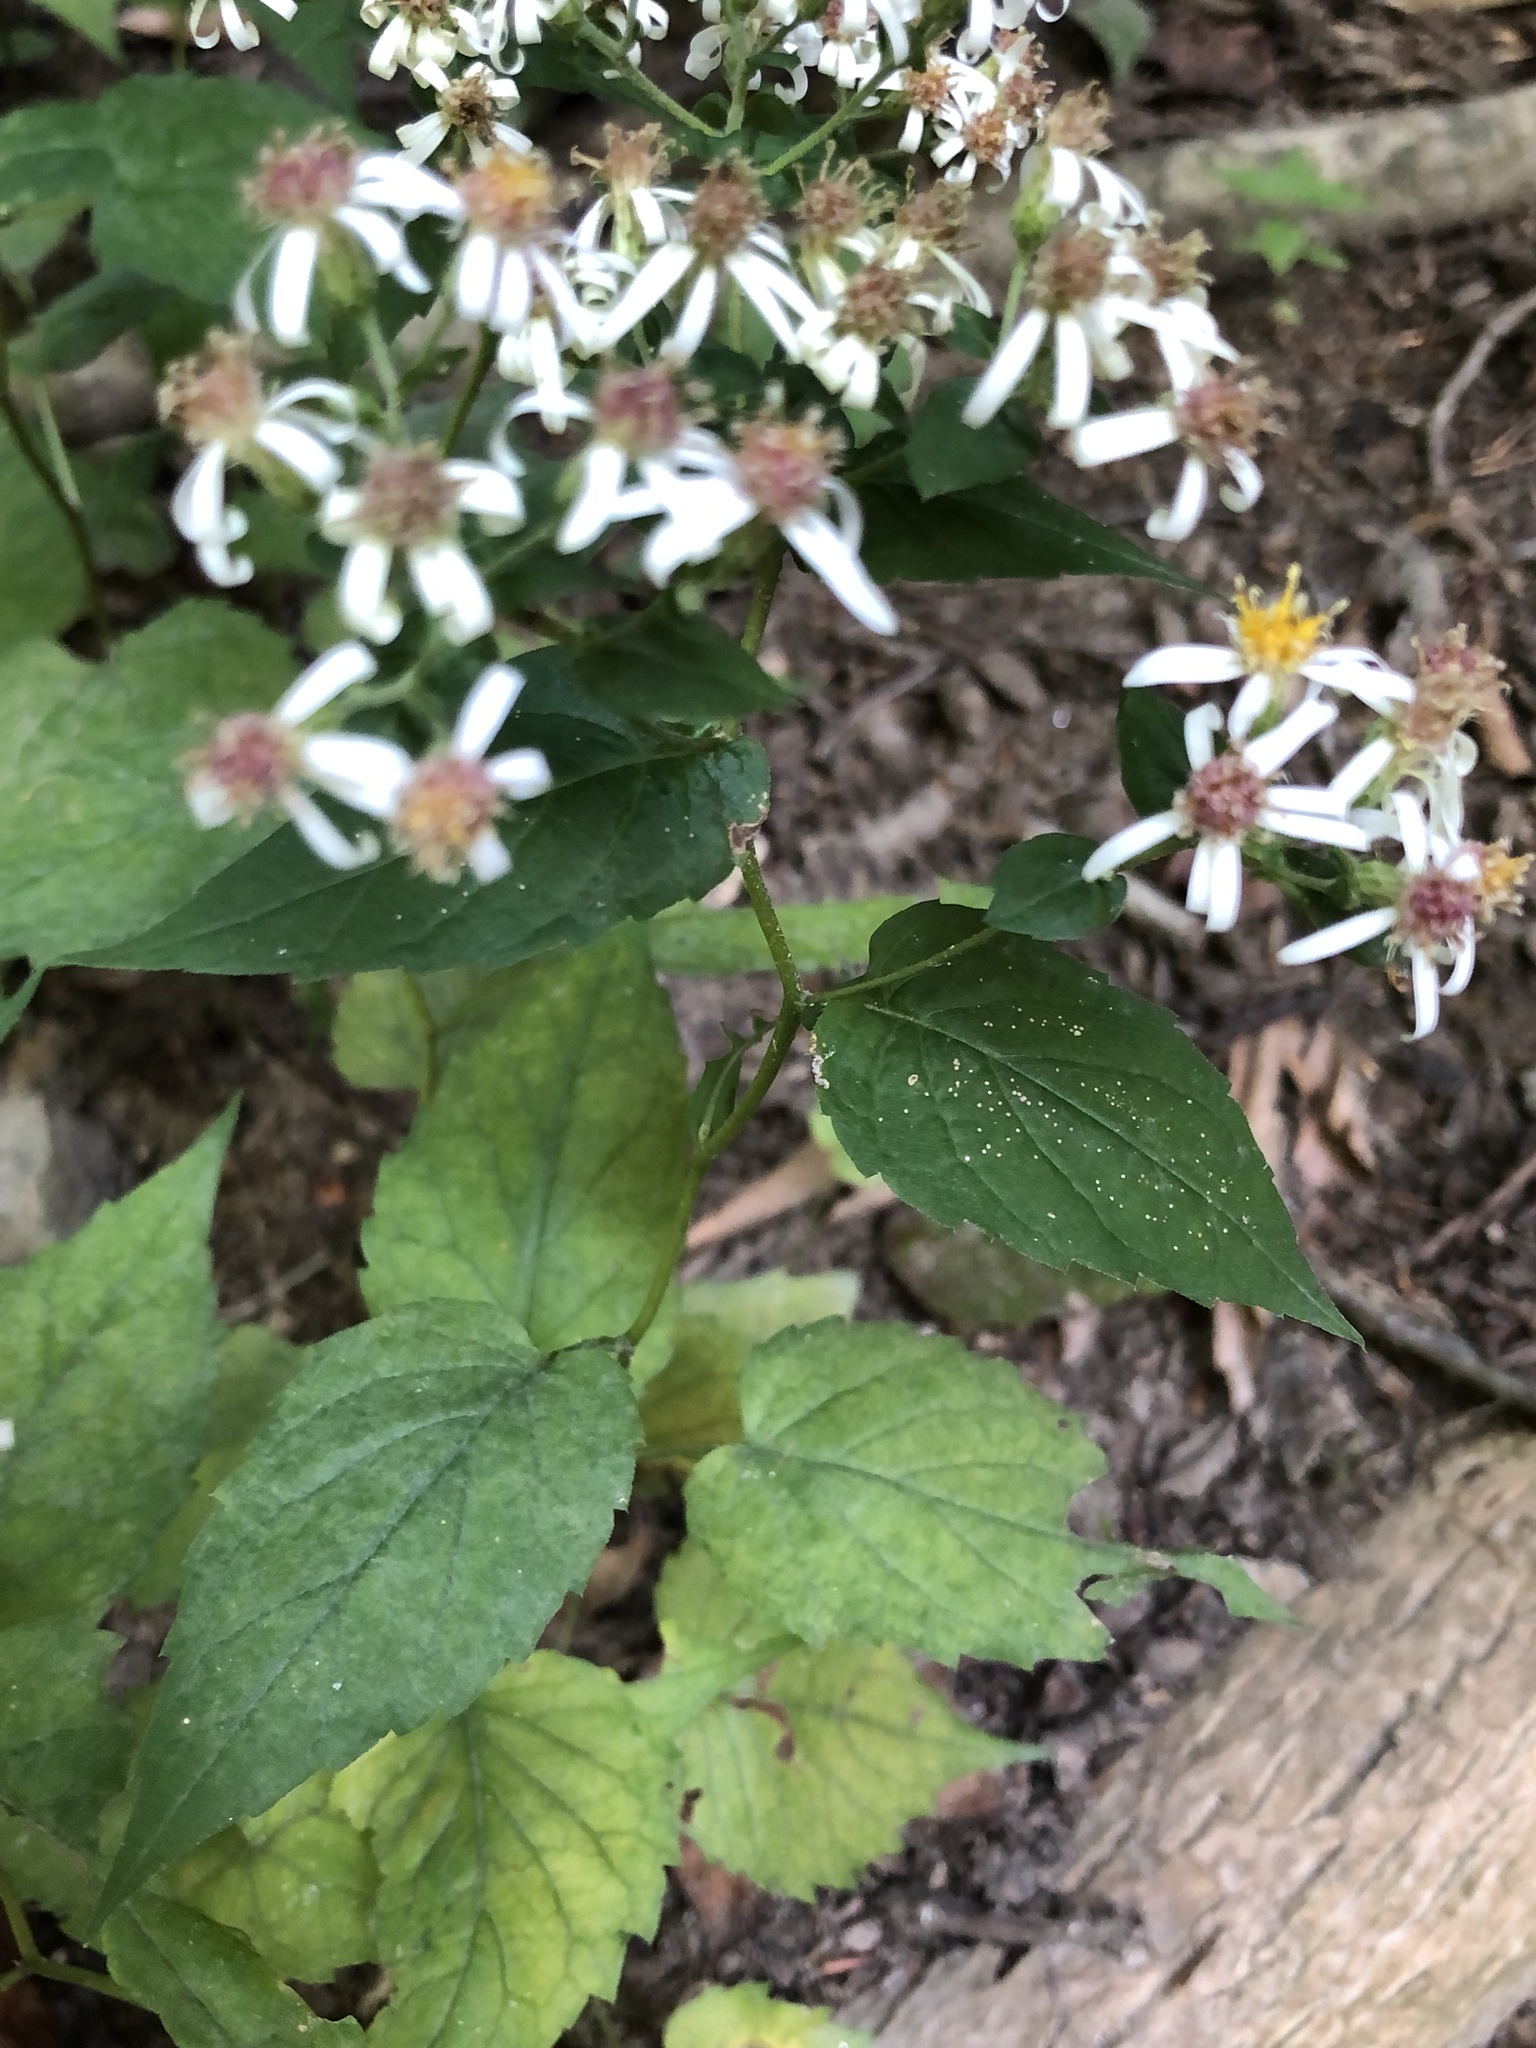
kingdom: Plantae
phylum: Tracheophyta
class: Magnoliopsida
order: Asterales
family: Asteraceae
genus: Eurybia
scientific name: Eurybia divaricata
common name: White wood aster
